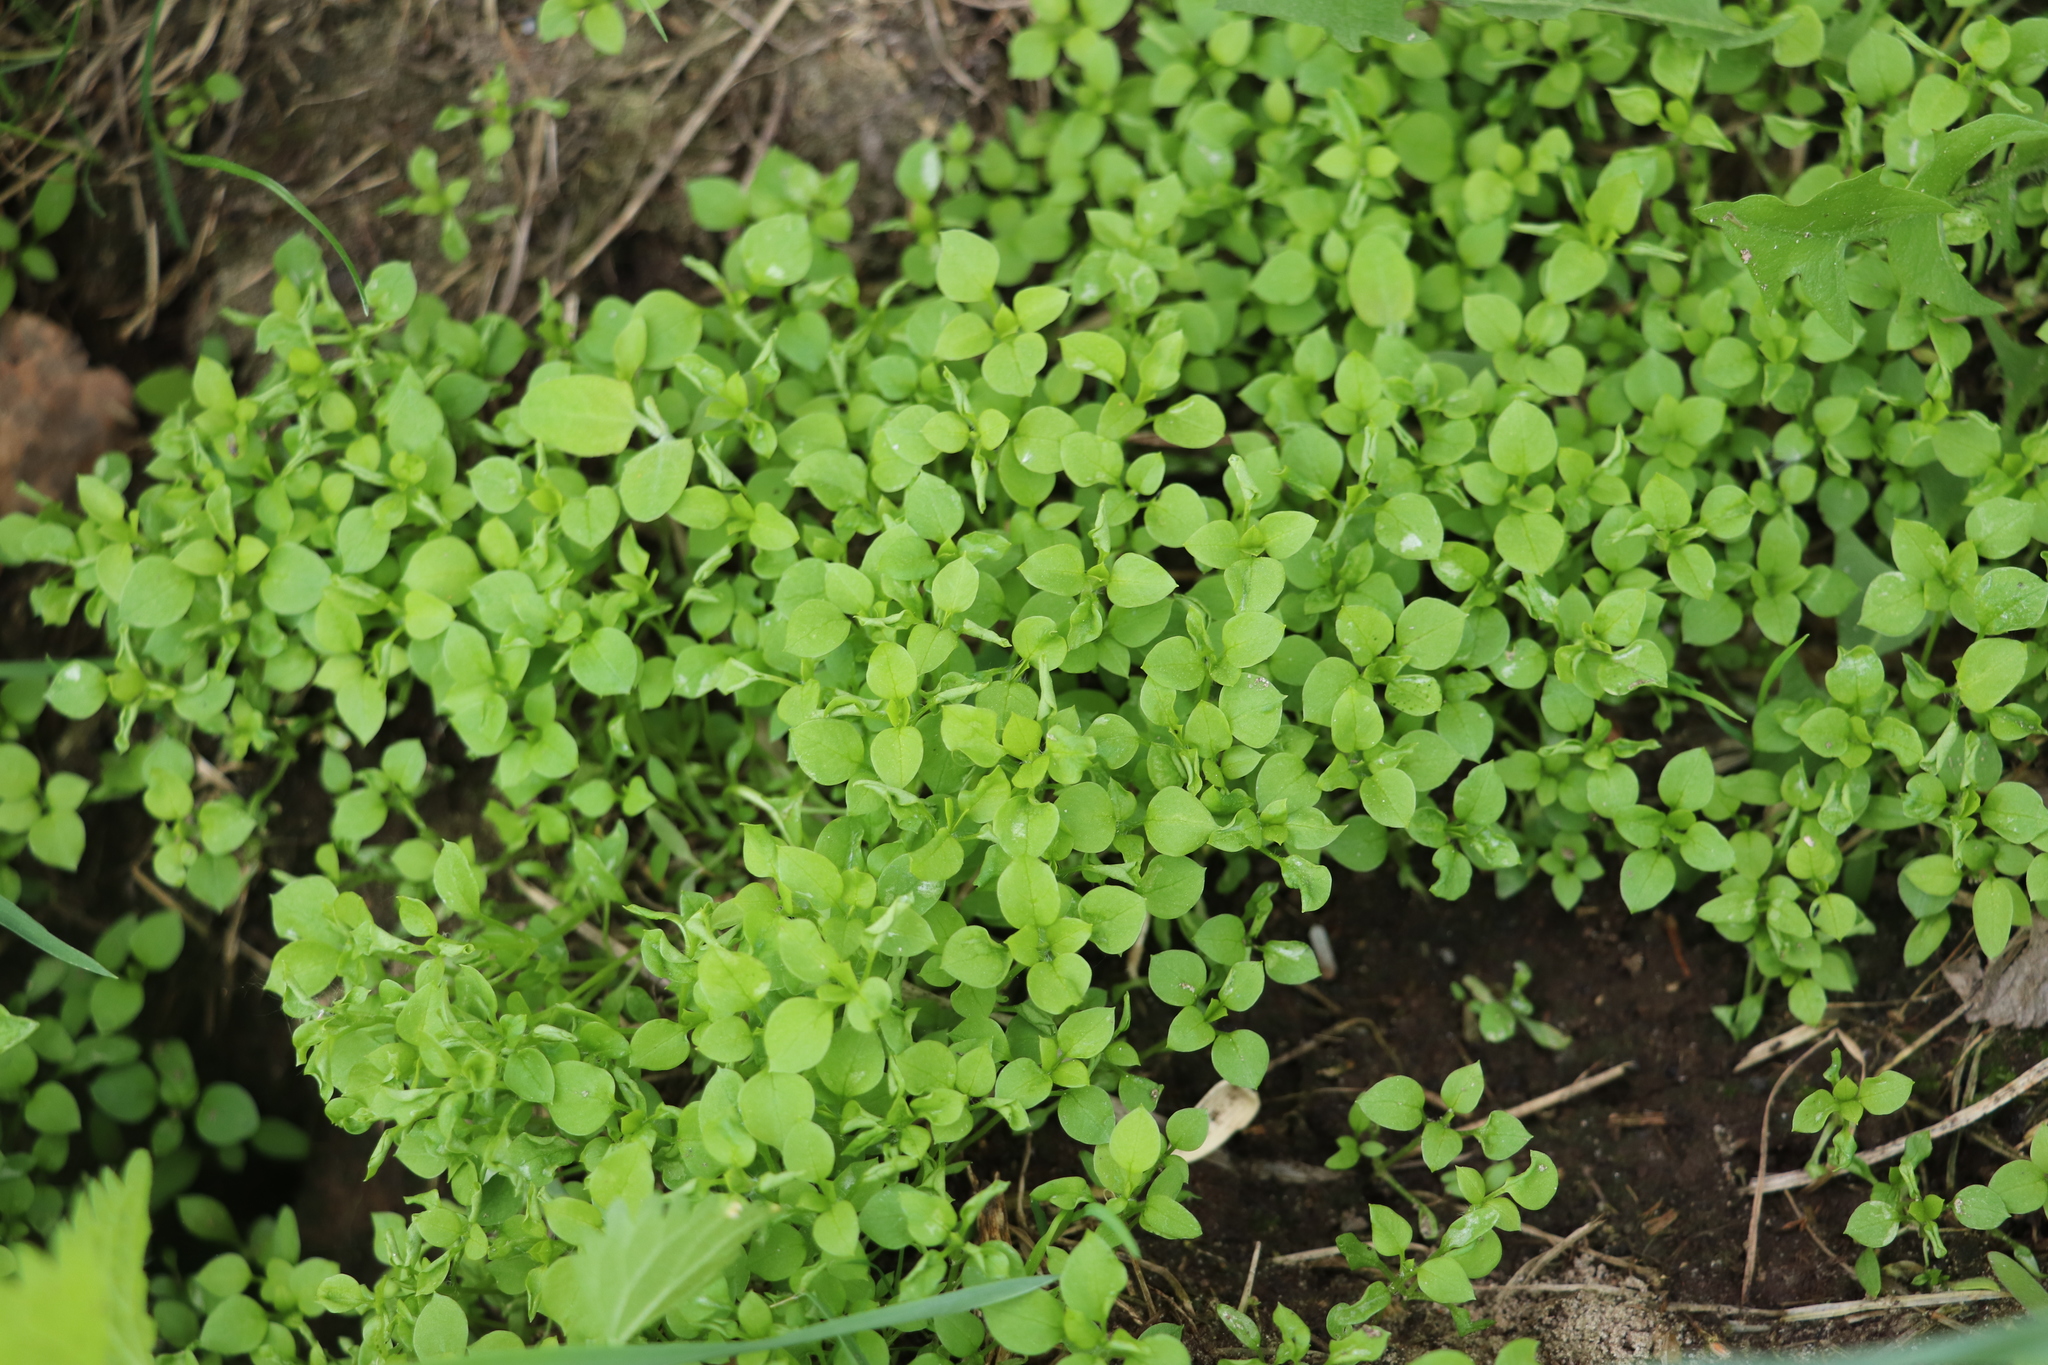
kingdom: Plantae
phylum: Tracheophyta
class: Magnoliopsida
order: Caryophyllales
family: Caryophyllaceae
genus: Stellaria
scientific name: Stellaria media
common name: Common chickweed
